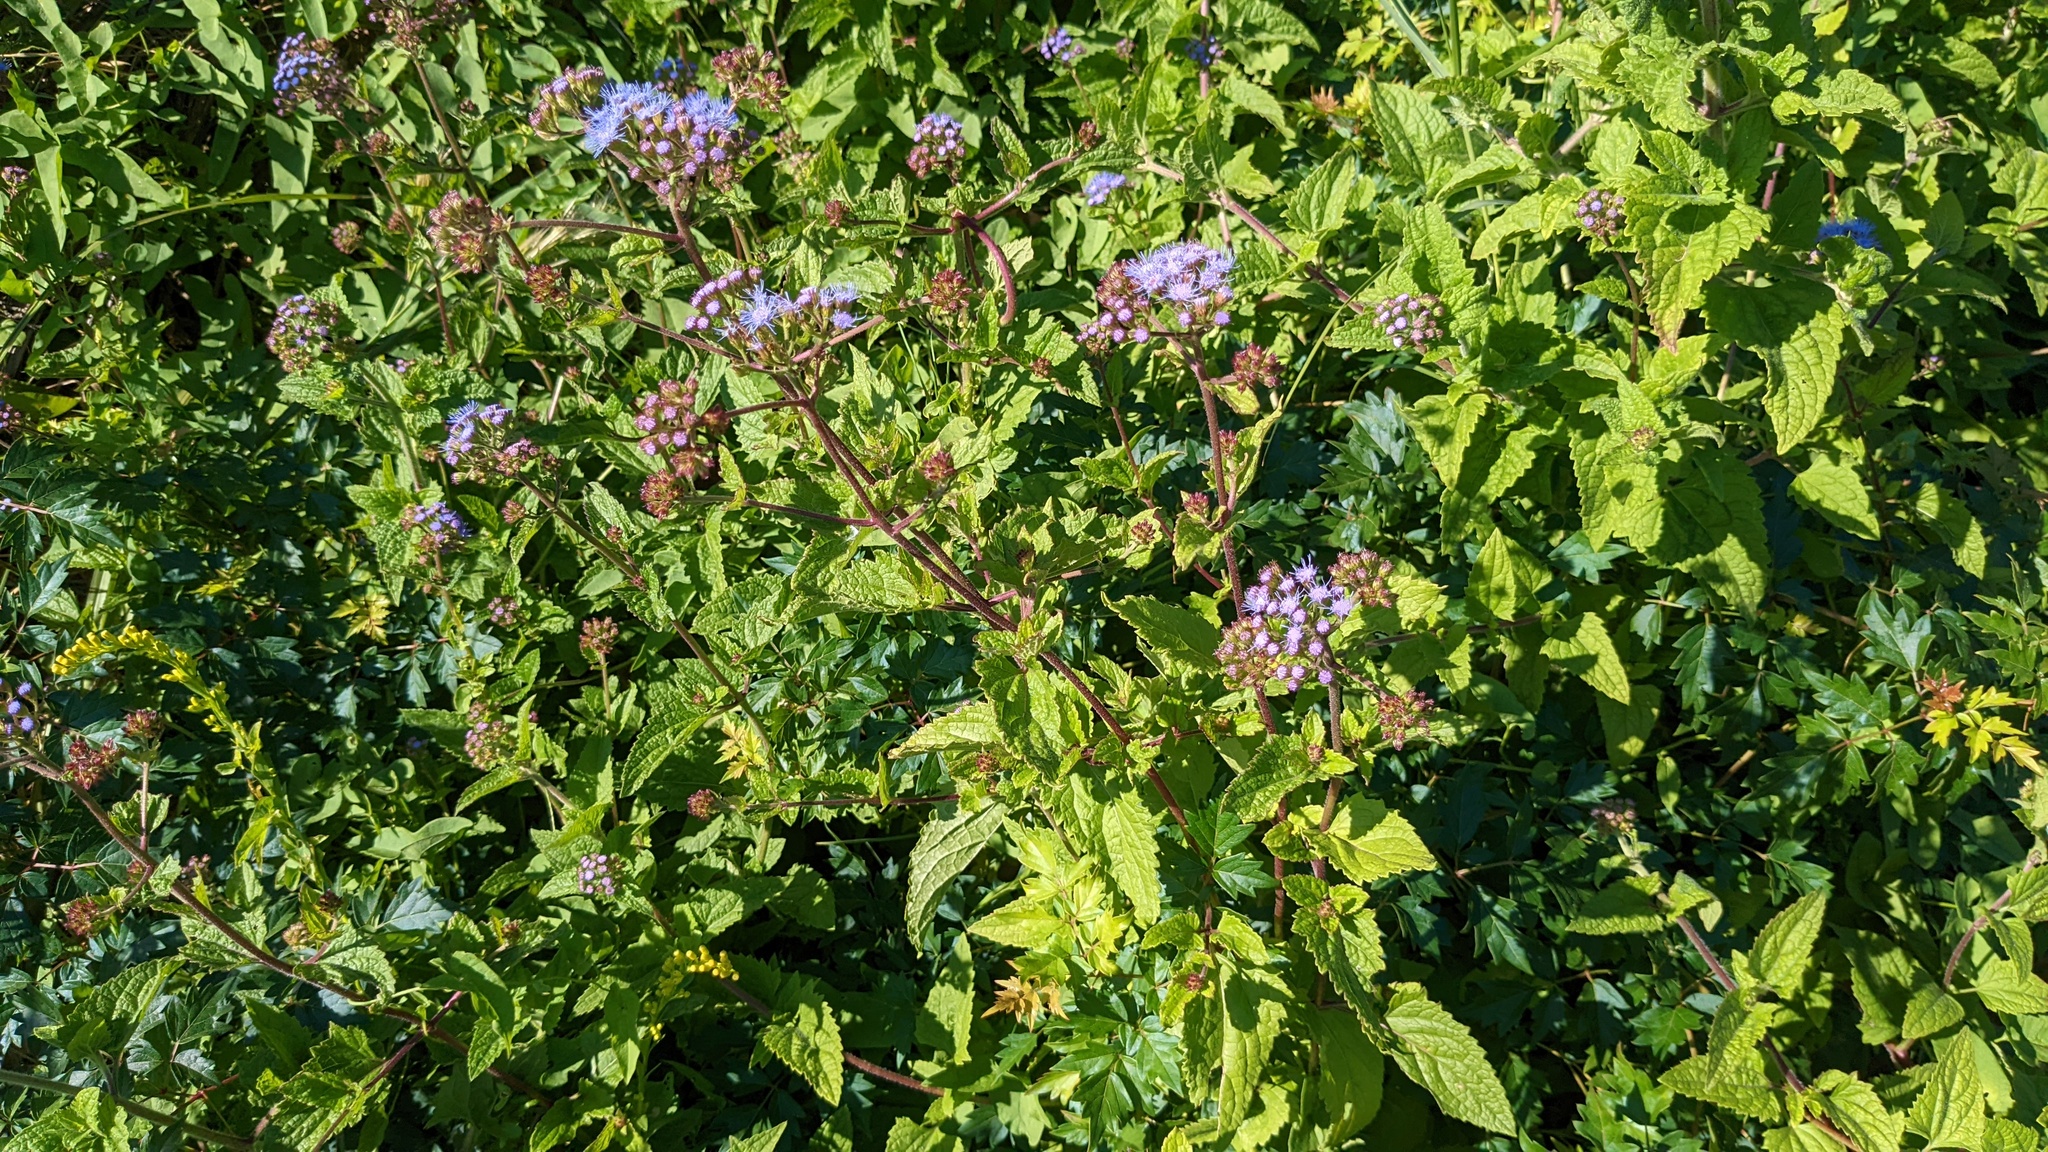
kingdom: Plantae
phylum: Tracheophyta
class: Magnoliopsida
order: Asterales
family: Asteraceae
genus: Conoclinium
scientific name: Conoclinium coelestinum
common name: Blue mistflower
